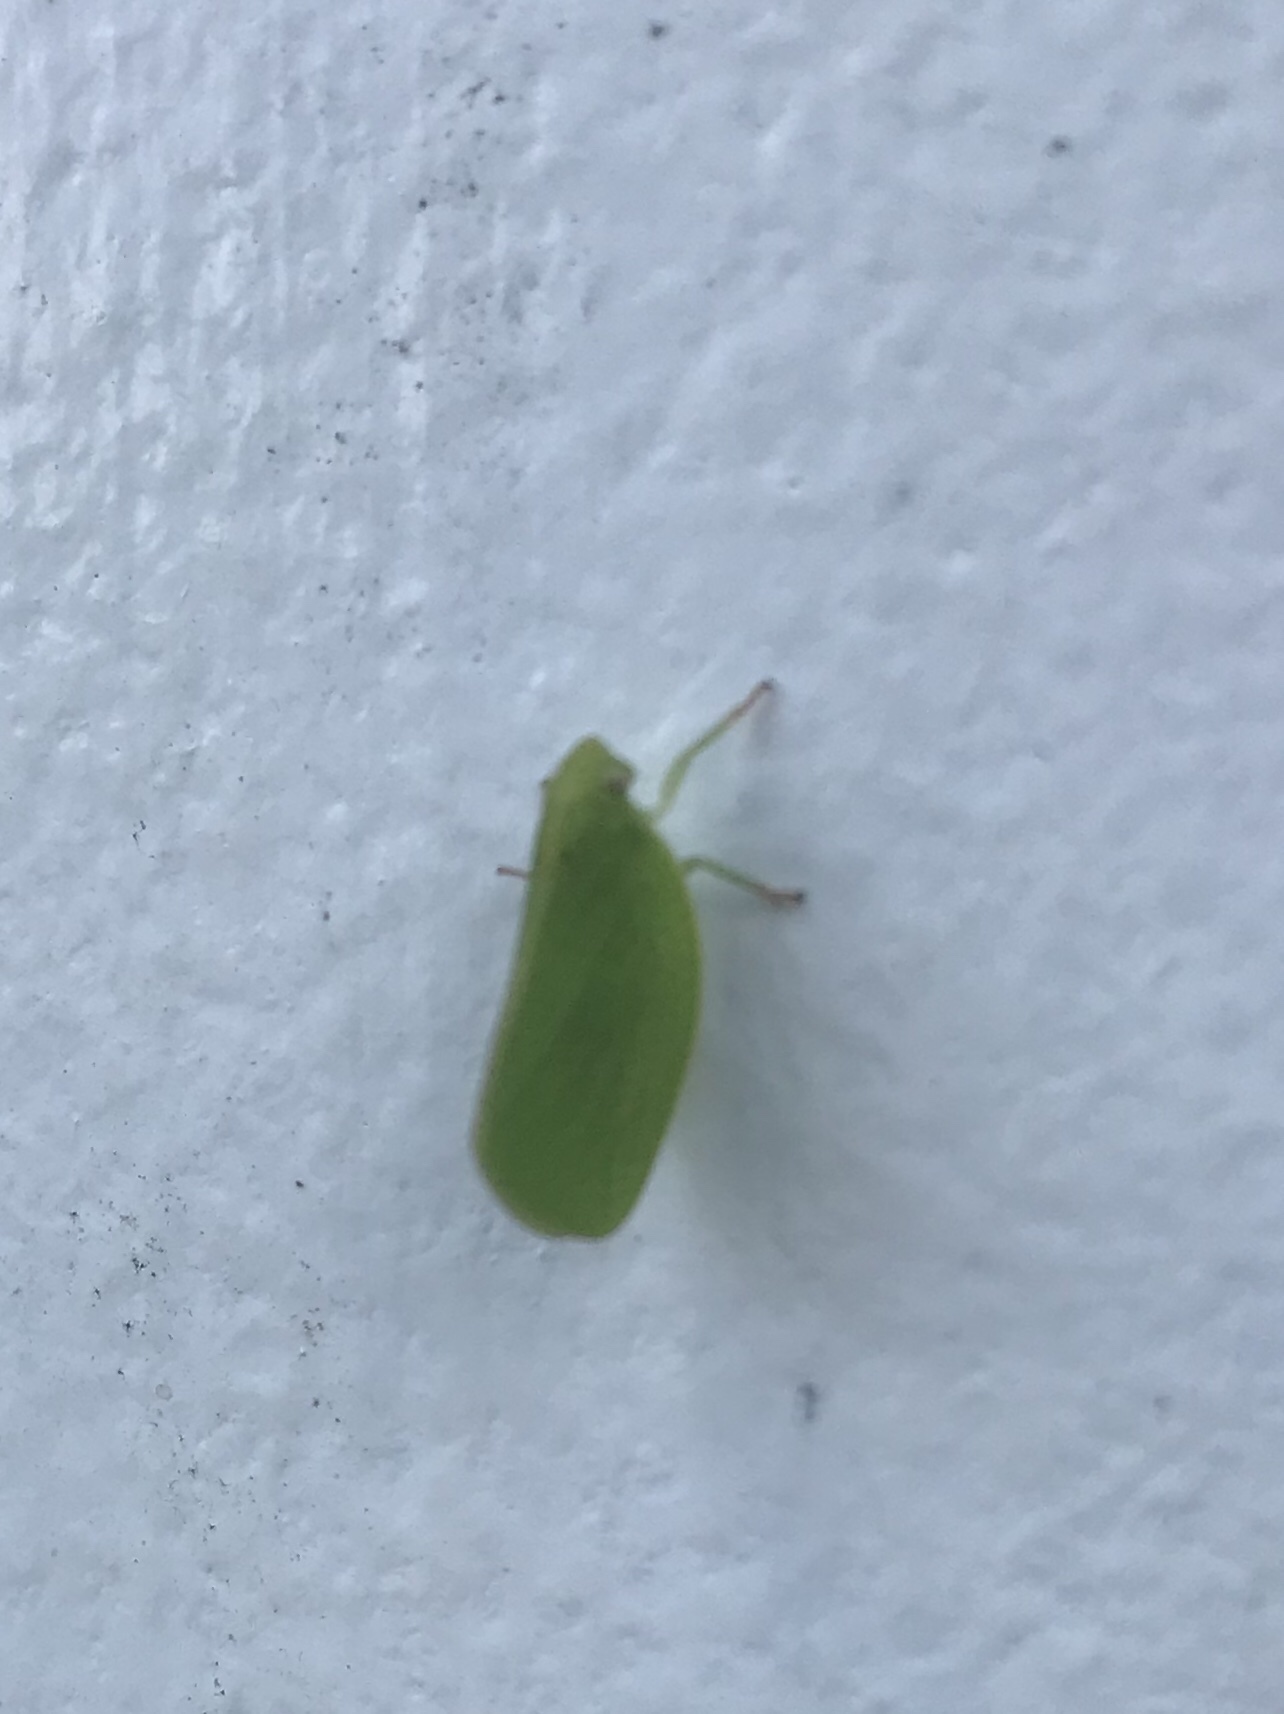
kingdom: Animalia
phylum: Arthropoda
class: Insecta
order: Hemiptera
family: Acanaloniidae
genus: Acanalonia
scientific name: Acanalonia conica
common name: Green cone-headed planthopper
